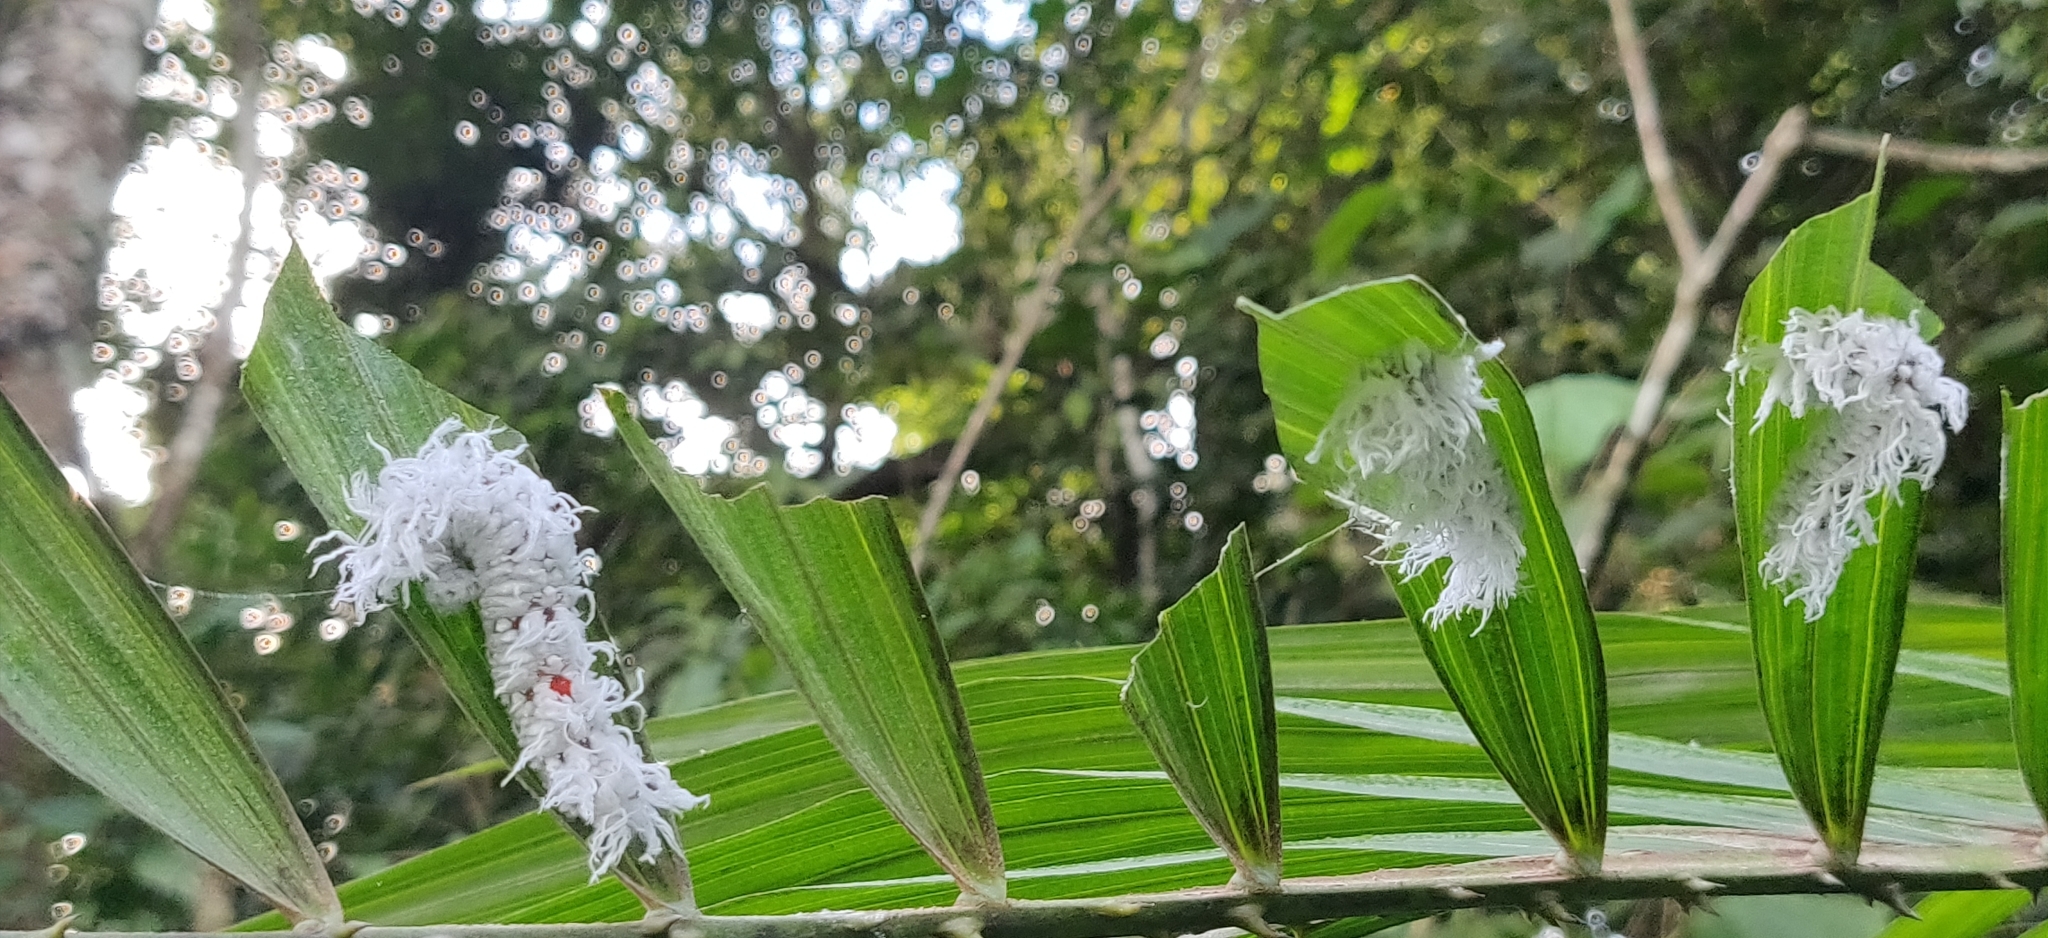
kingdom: Animalia
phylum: Arthropoda
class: Insecta
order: Lepidoptera
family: Hesperiidae
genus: Gangara
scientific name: Gangara thyrsis
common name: Giant redeye
